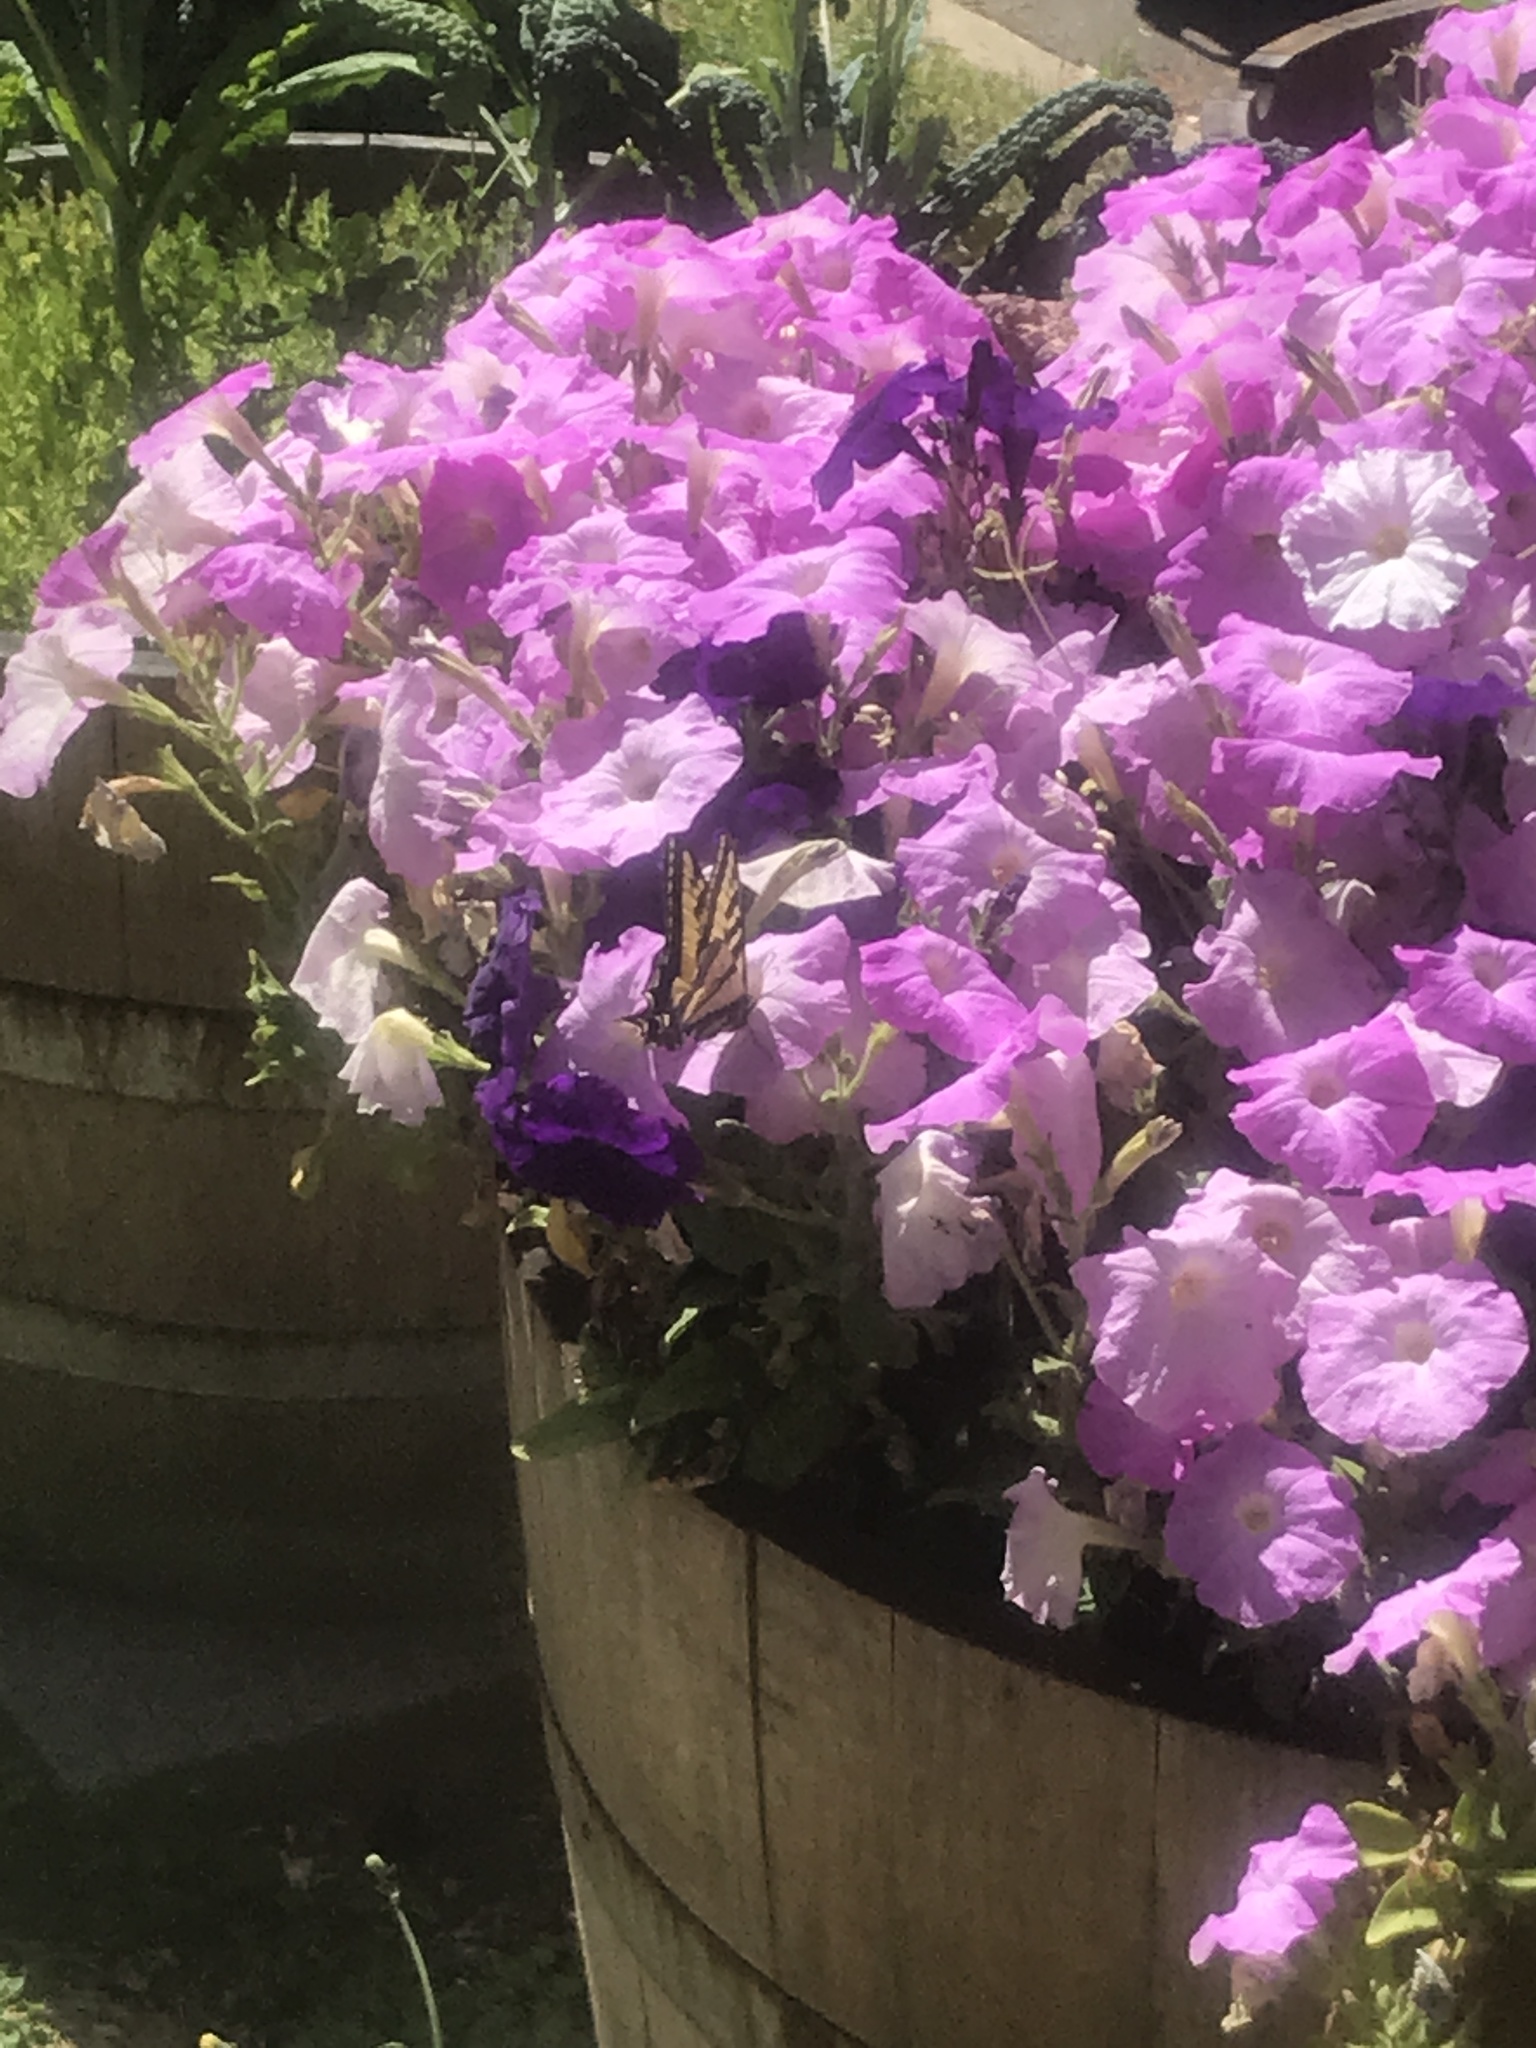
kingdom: Animalia
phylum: Arthropoda
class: Insecta
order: Lepidoptera
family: Papilionidae
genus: Papilio
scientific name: Papilio rutulus
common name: Western tiger swallowtail
